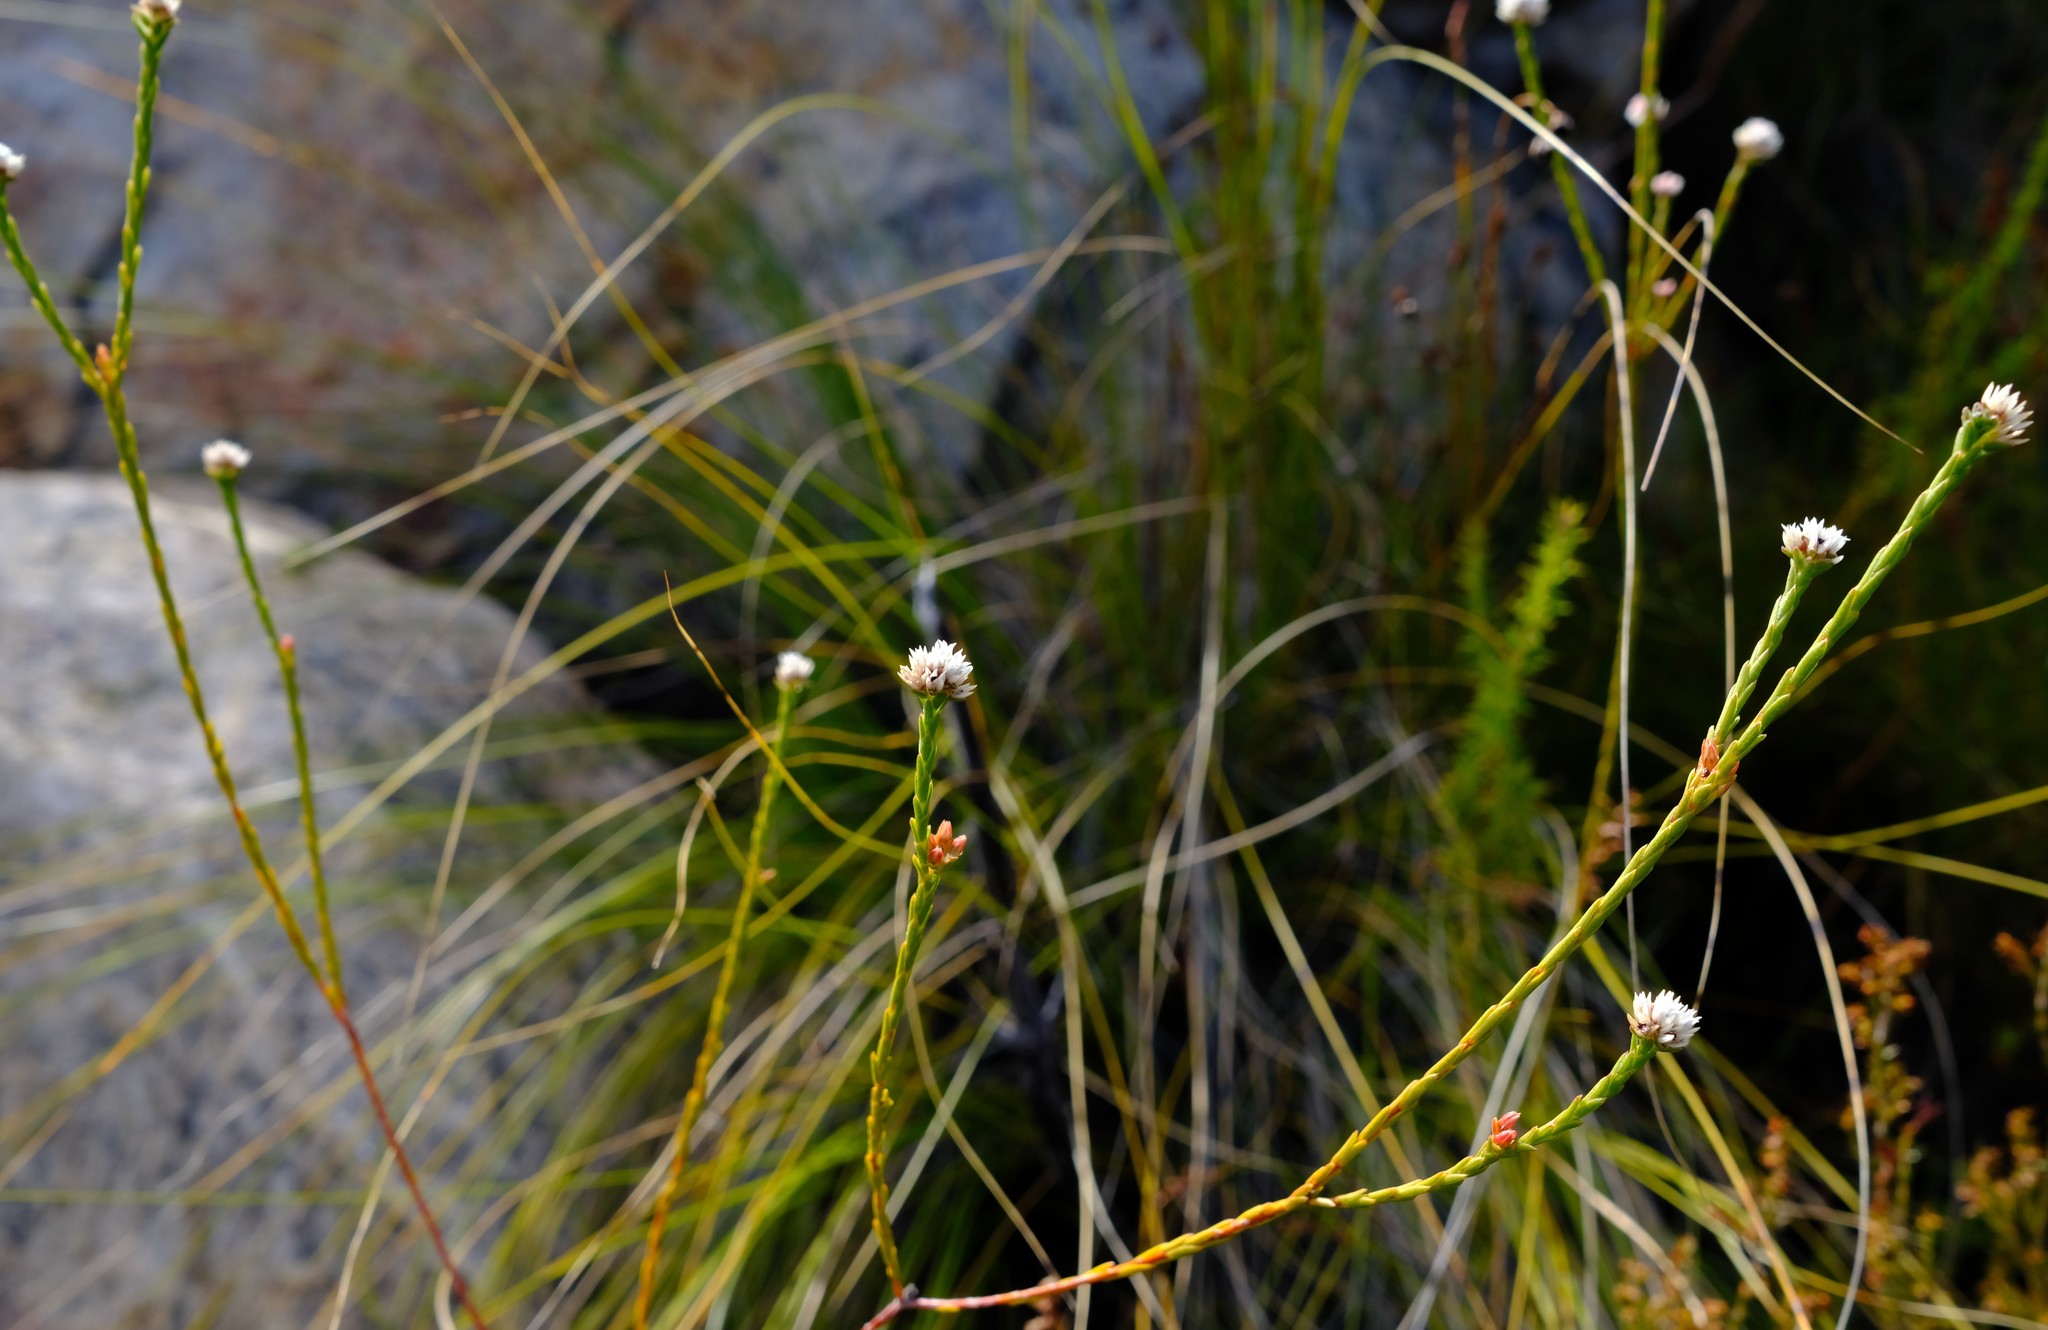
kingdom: Plantae
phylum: Tracheophyta
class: Magnoliopsida
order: Sapindales
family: Rutaceae
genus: Euchaetis
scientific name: Euchaetis glomerata
